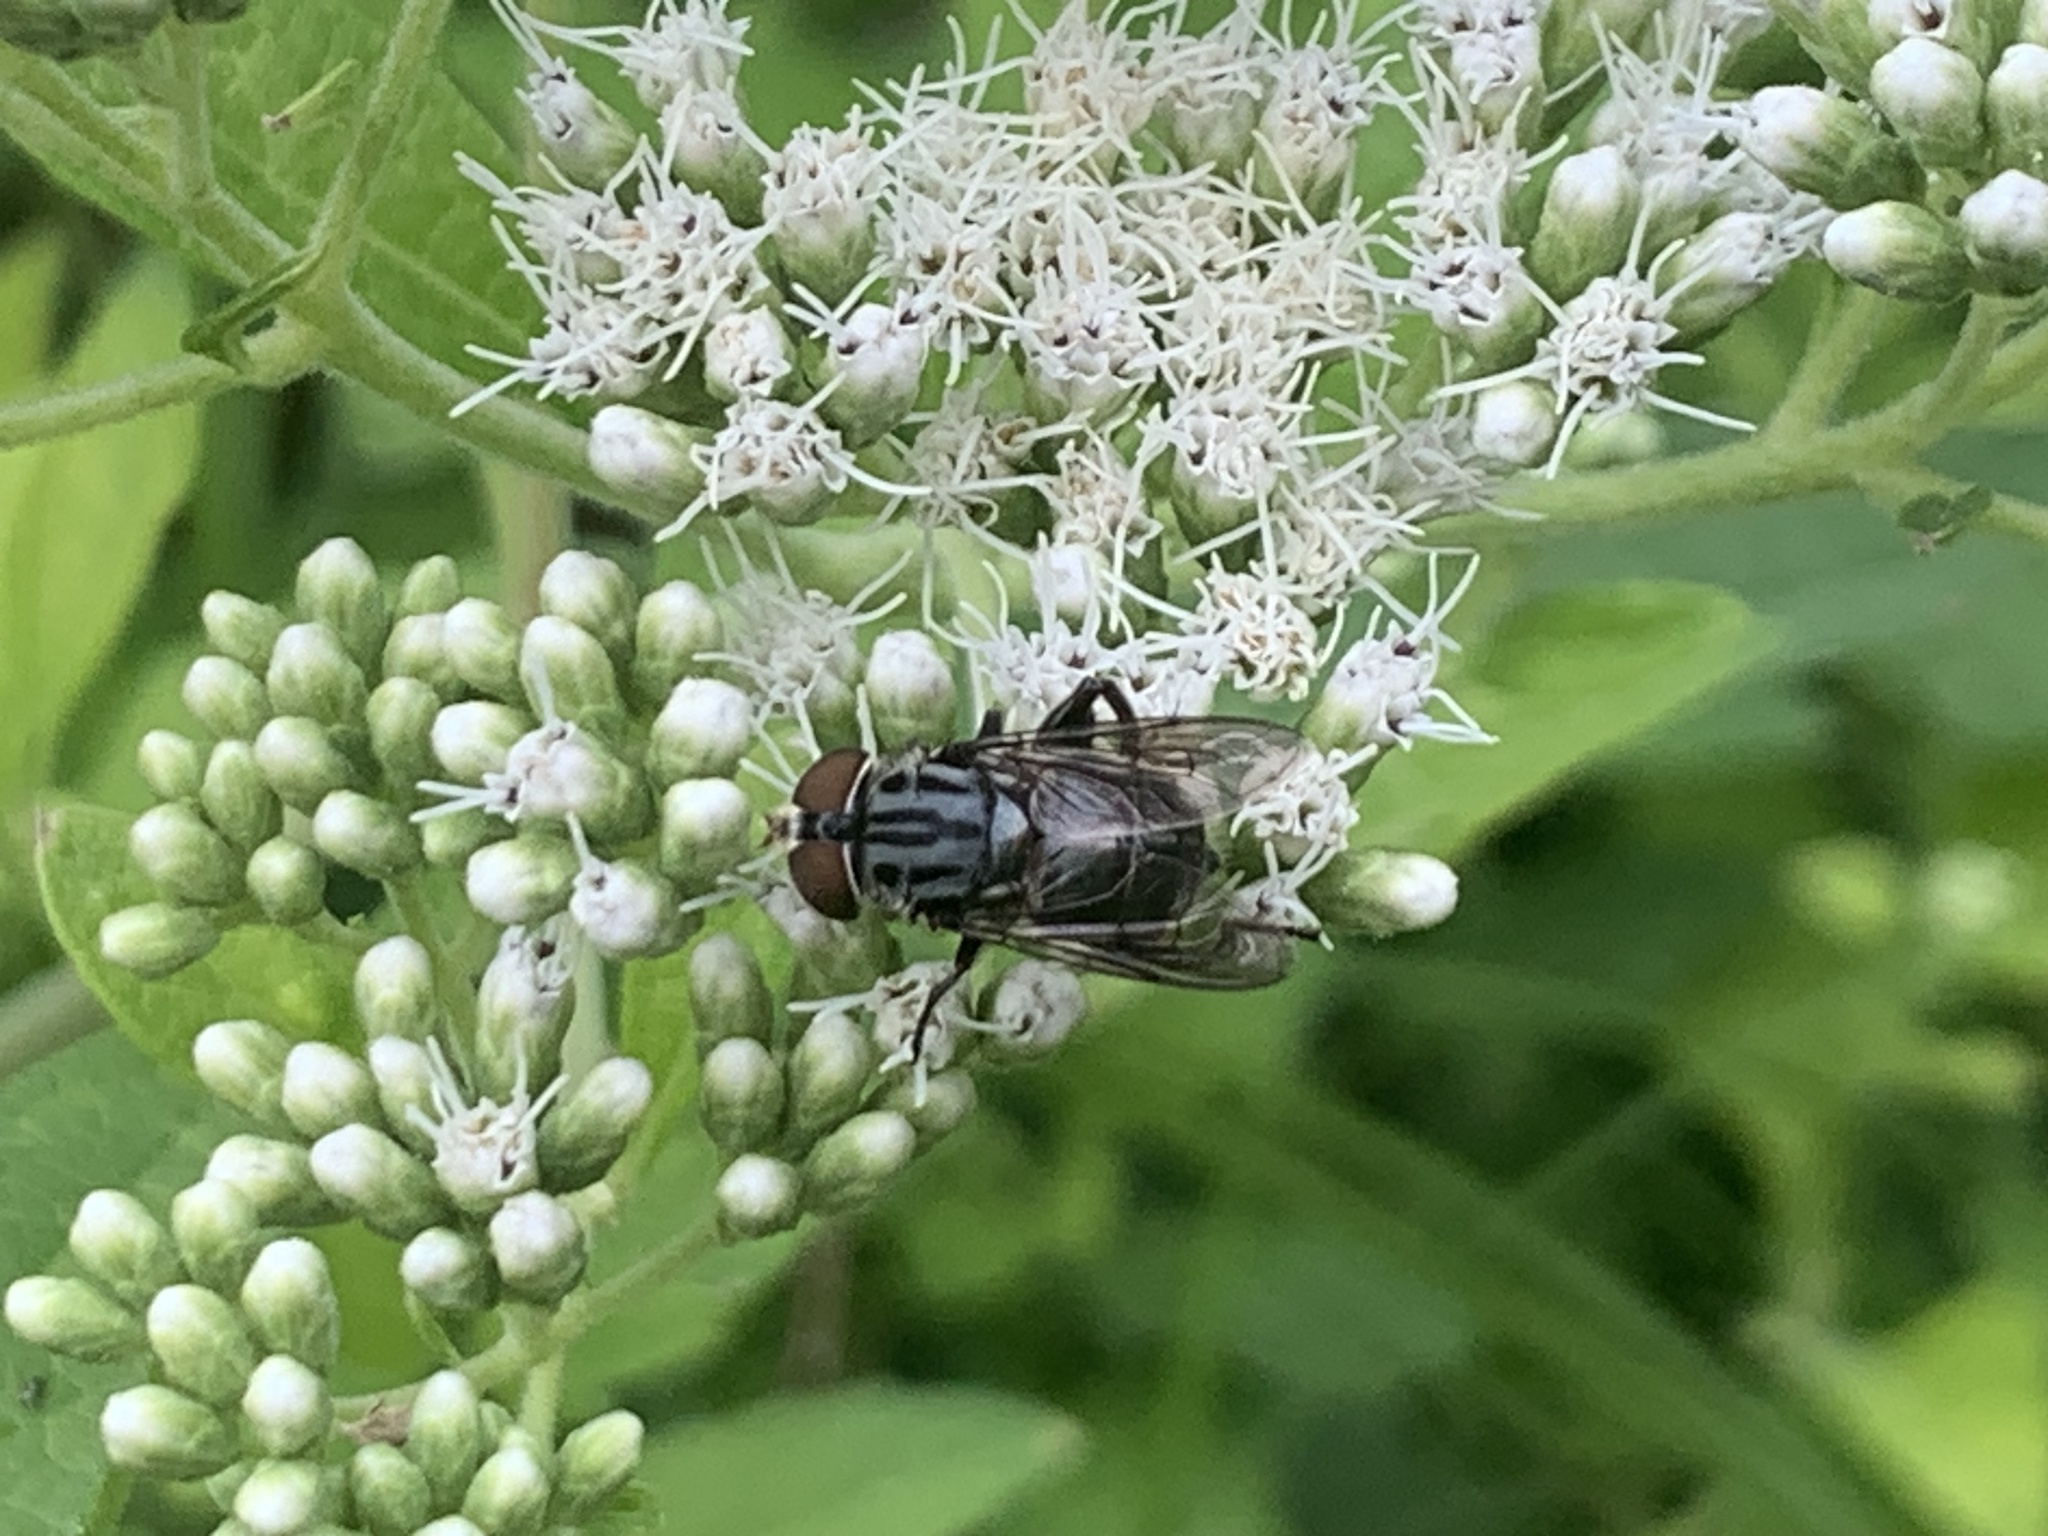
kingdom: Animalia
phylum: Arthropoda
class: Insecta
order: Diptera
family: Syrphidae
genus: Palpada
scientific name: Palpada furcata
